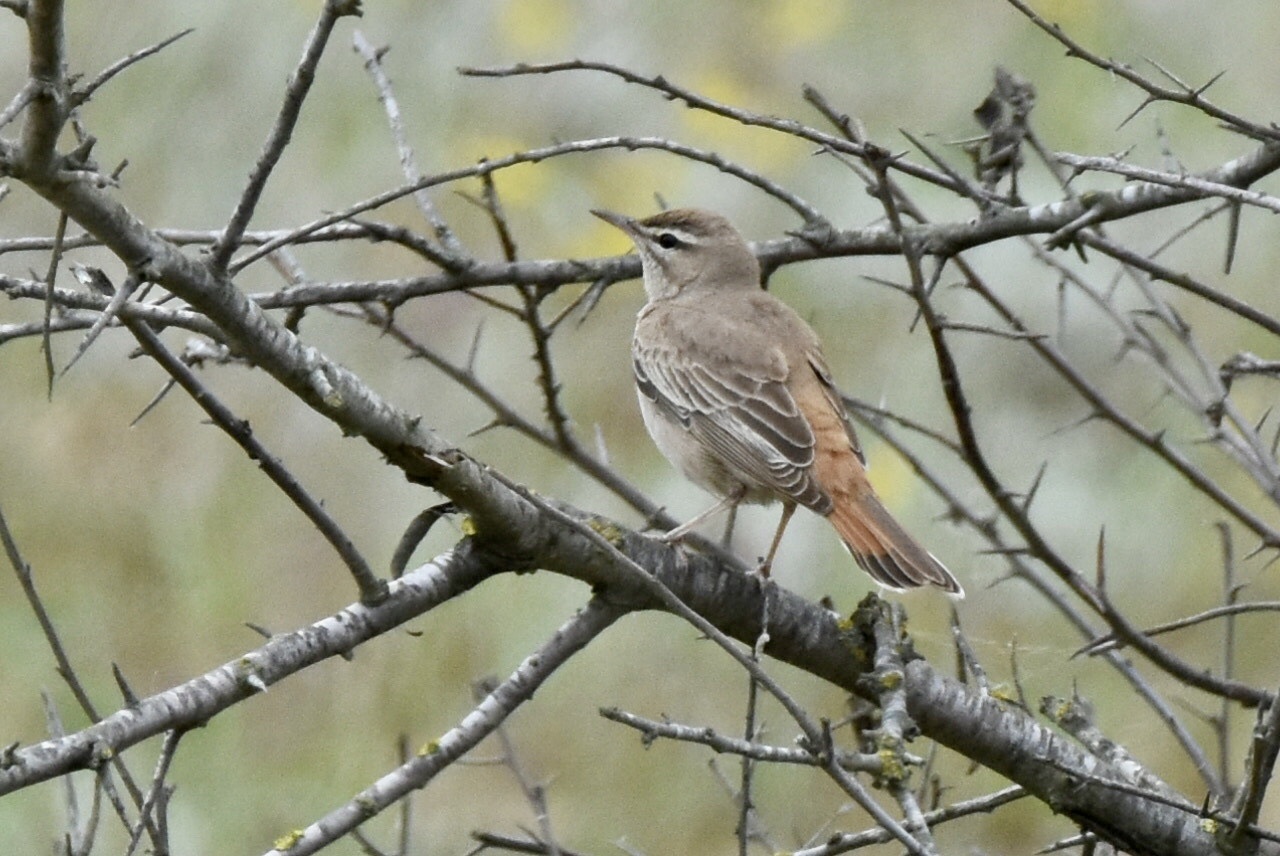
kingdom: Animalia
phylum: Chordata
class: Aves
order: Passeriformes
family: Muscicapidae
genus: Erythropygia
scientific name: Erythropygia galactotes
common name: Rufous-tailed scrub robin
